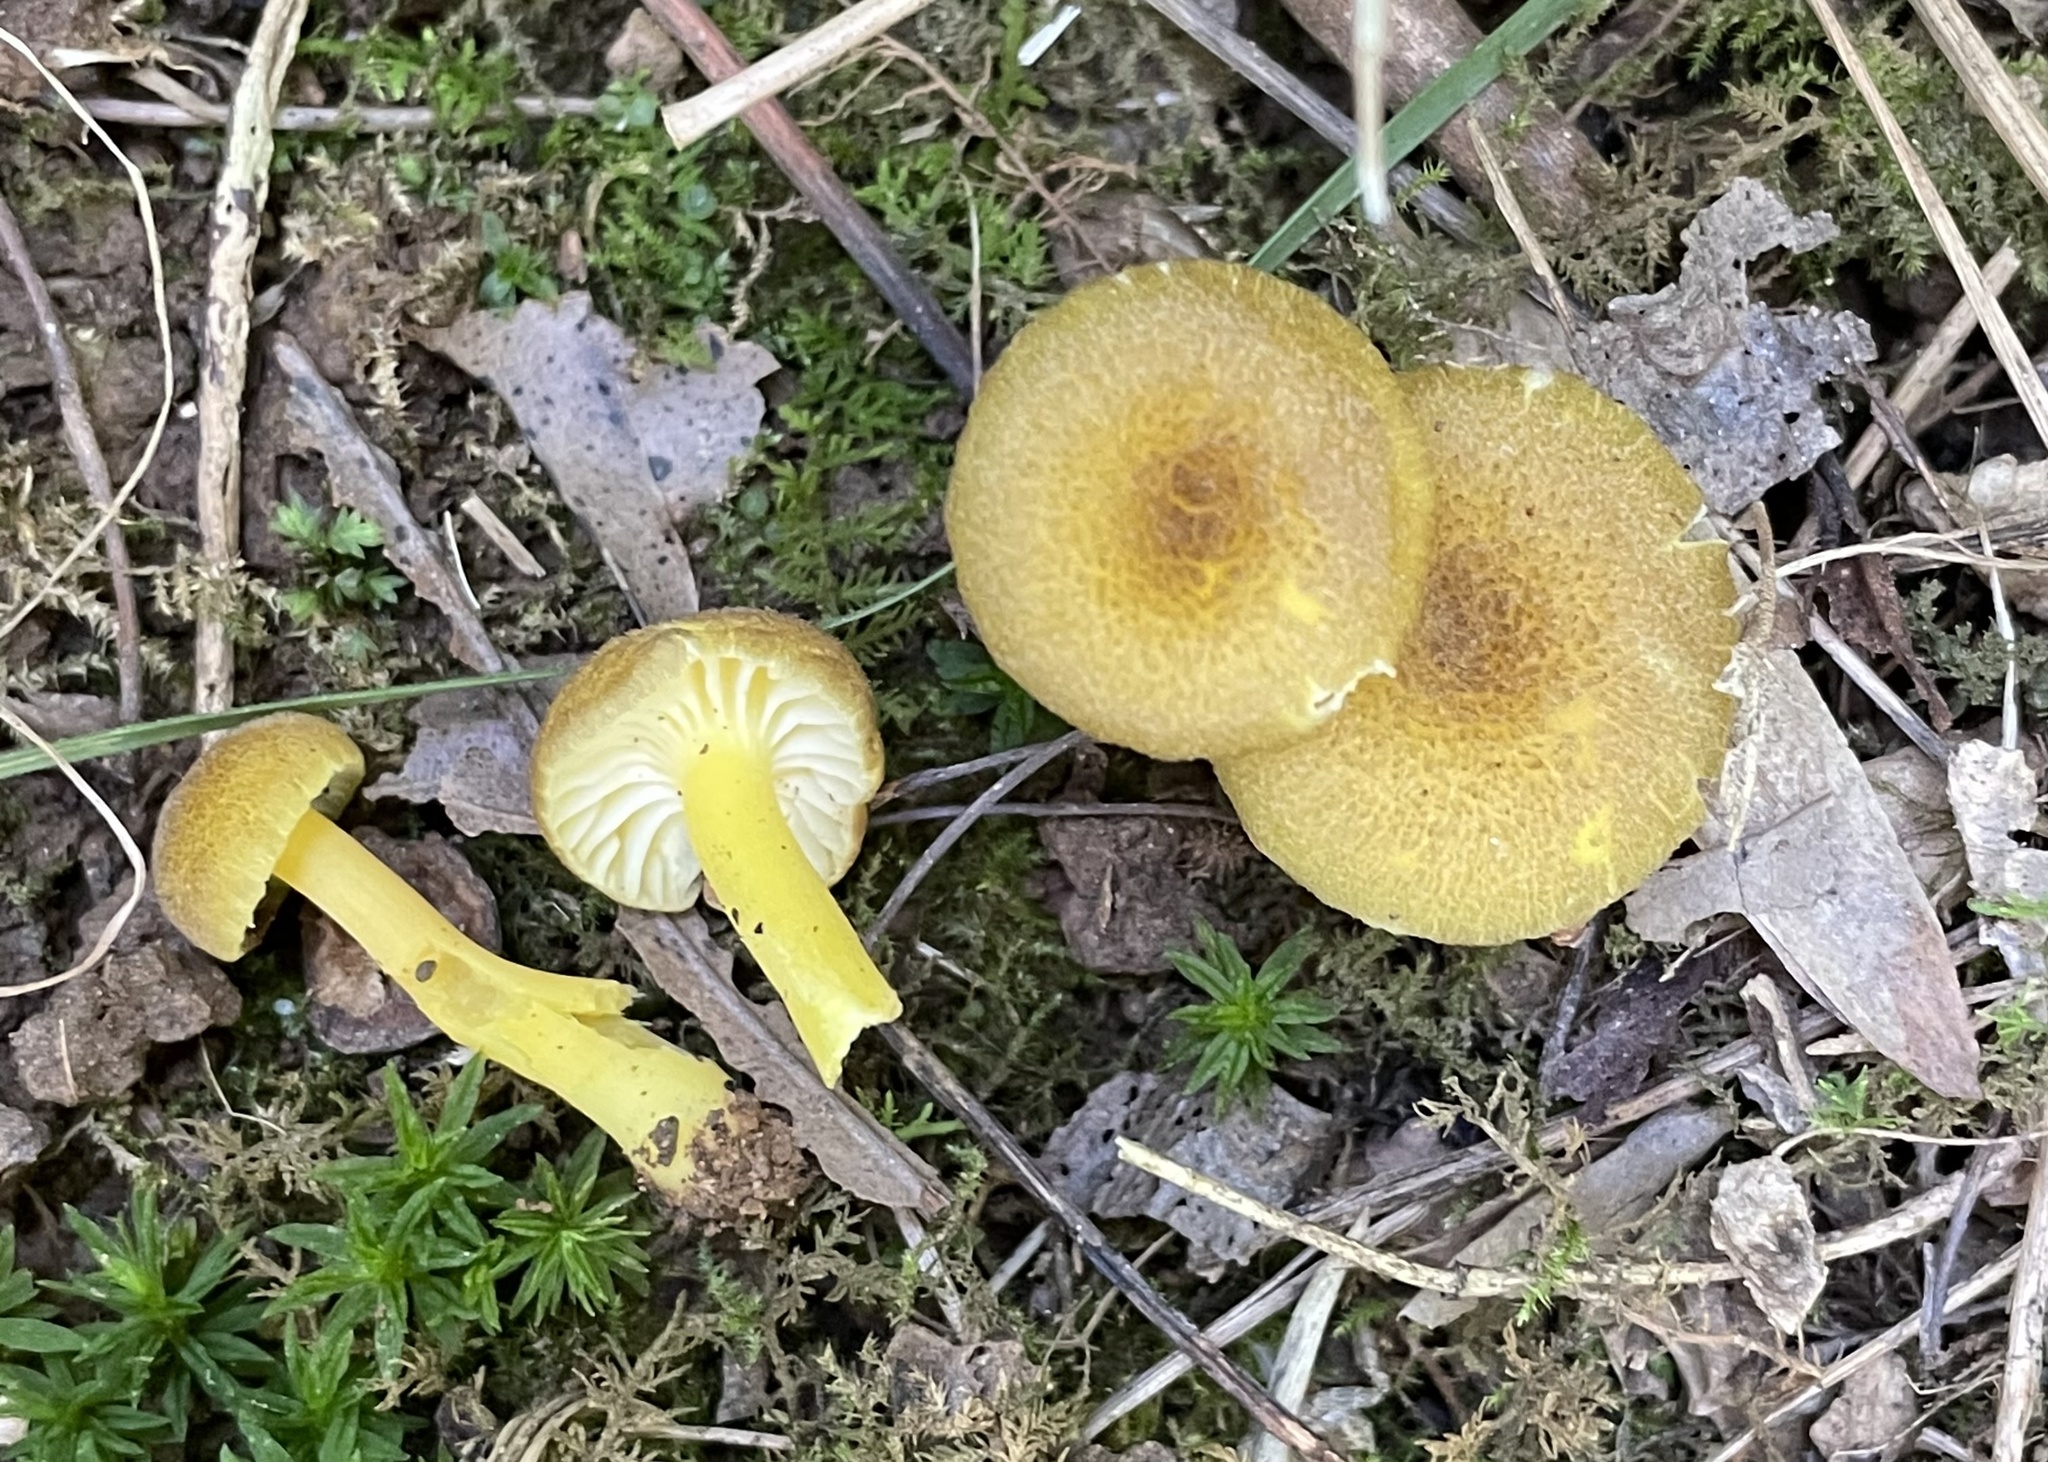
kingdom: Fungi
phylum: Basidiomycota
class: Agaricomycetes
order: Agaricales
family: Hygrophoraceae
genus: Hygrocybe
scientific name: Hygrocybe caespitosa
